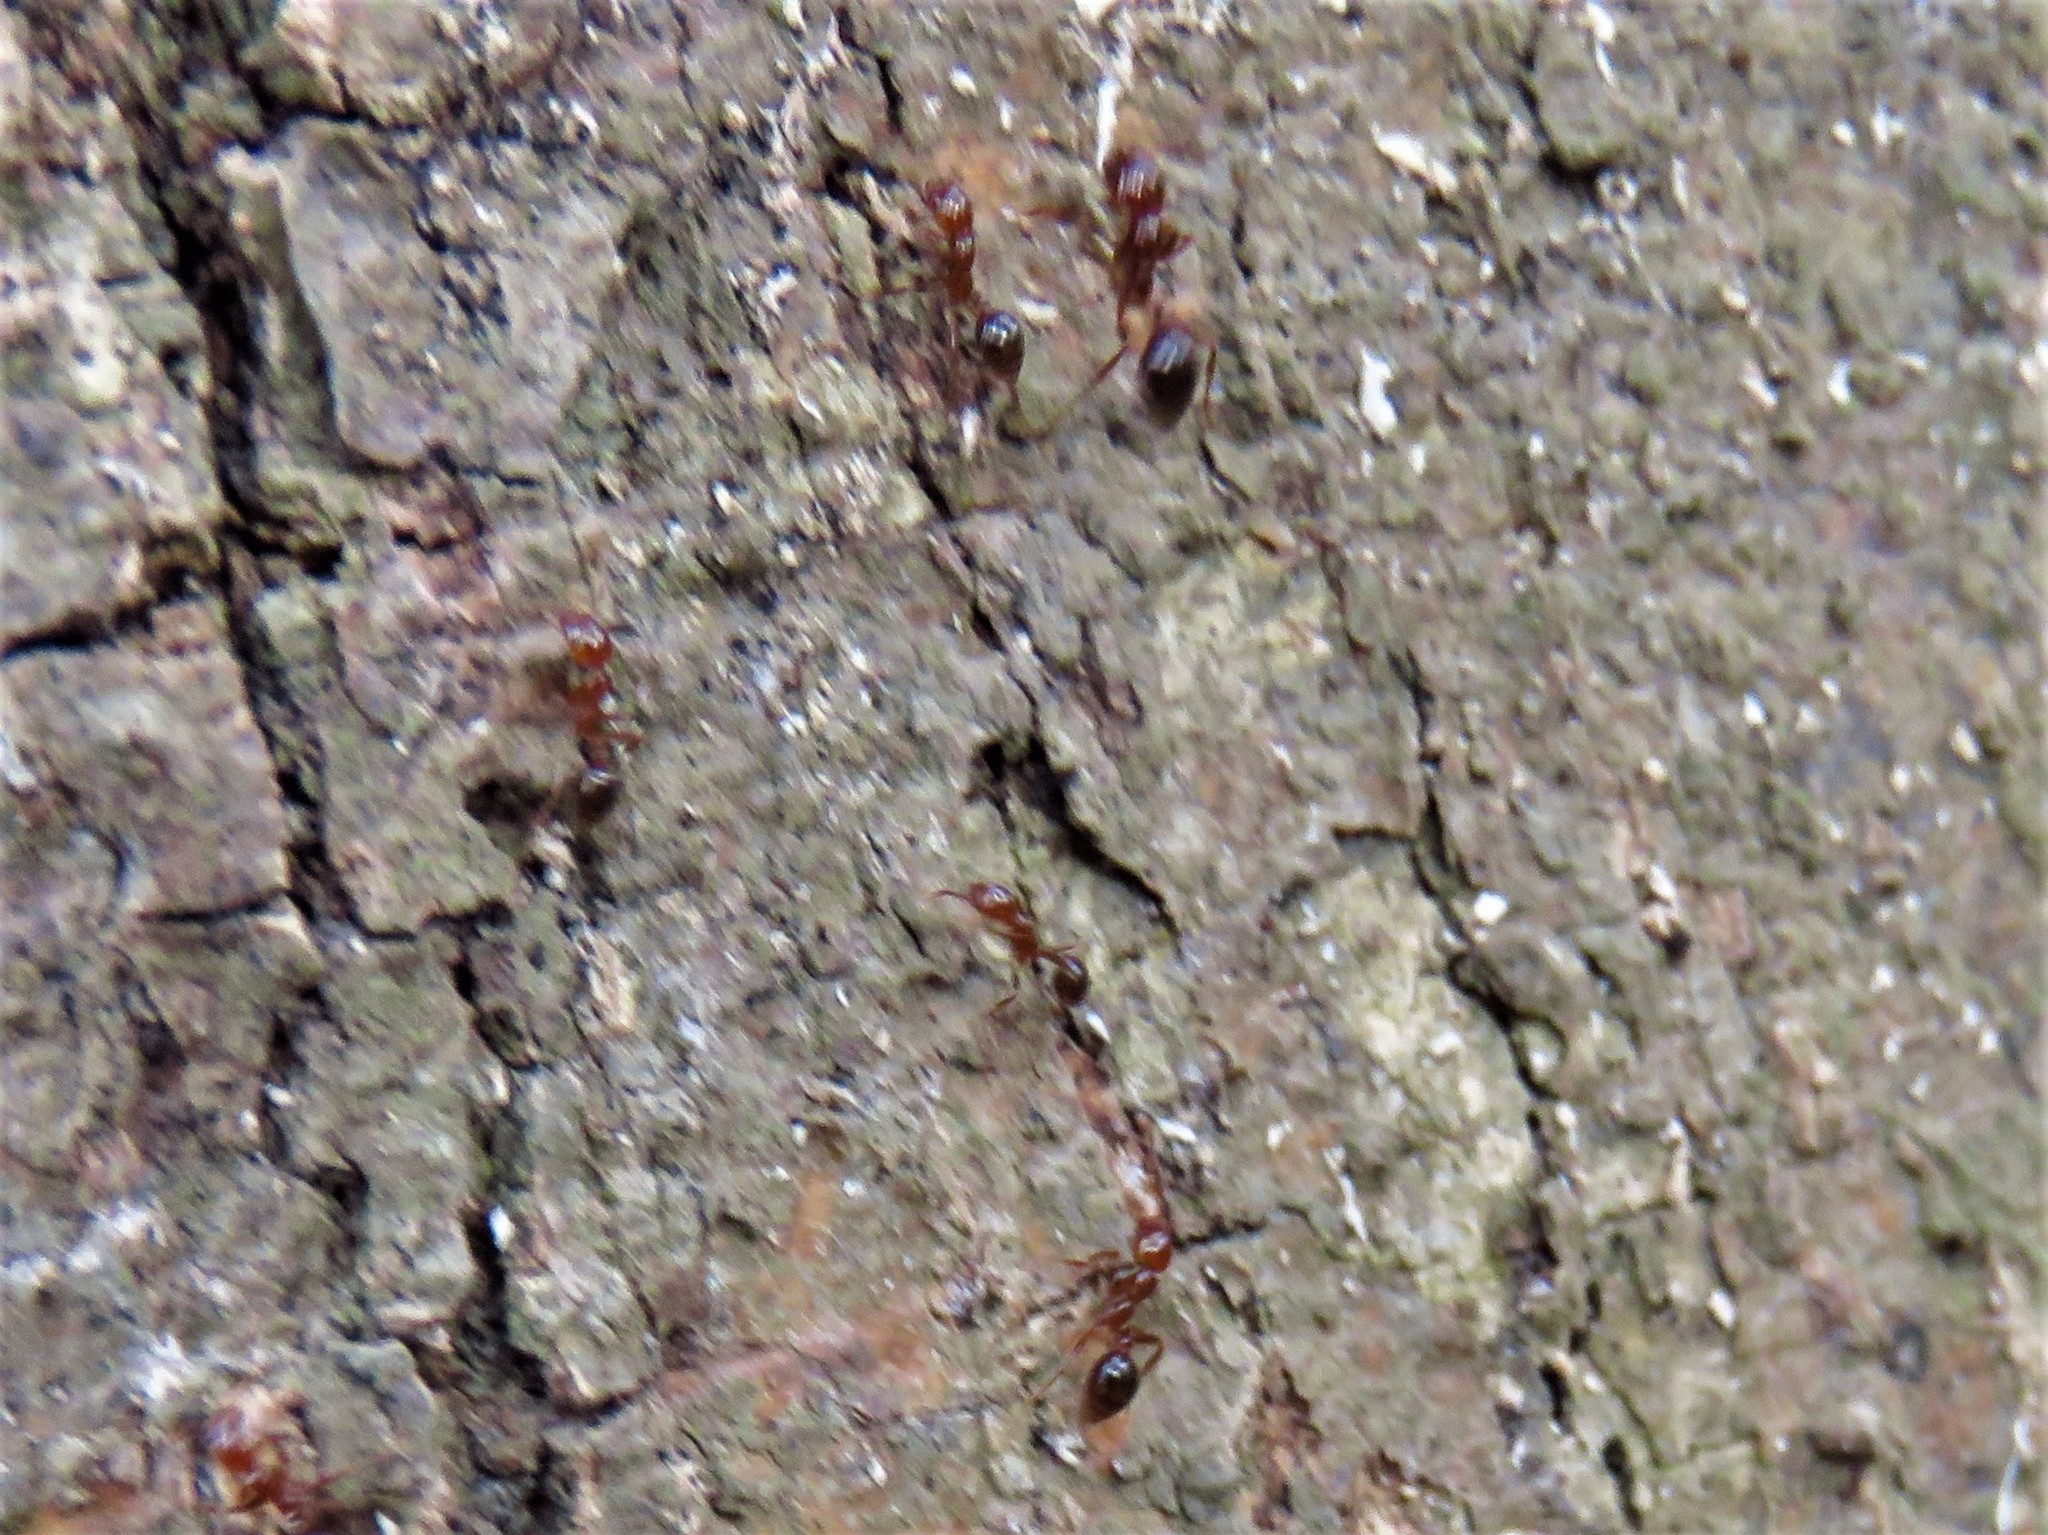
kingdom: Animalia
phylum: Arthropoda
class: Insecta
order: Hymenoptera
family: Formicidae
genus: Solenopsis
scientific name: Solenopsis invicta
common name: Red imported fire ant
